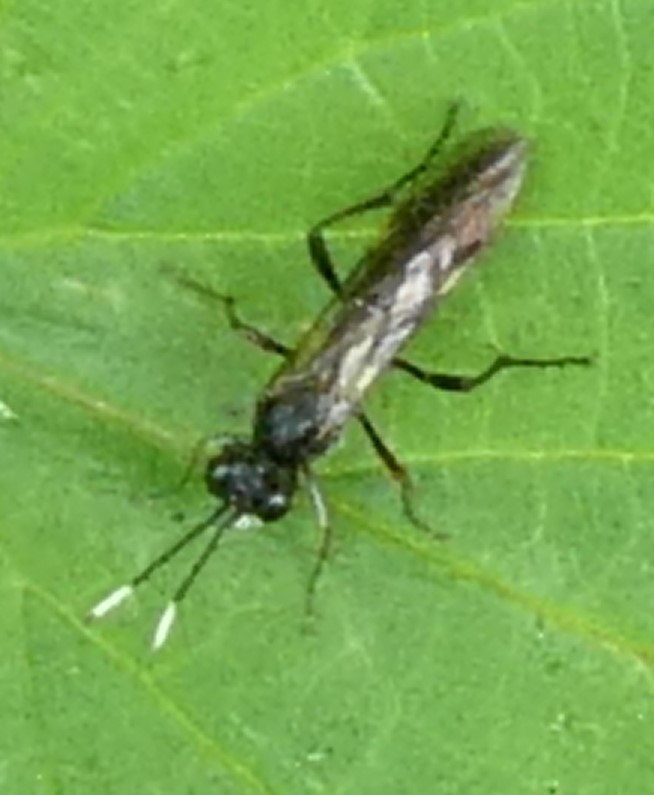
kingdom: Animalia
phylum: Arthropoda
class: Insecta
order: Hymenoptera
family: Tenthredinidae
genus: Tenthredo
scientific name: Tenthredo livida
